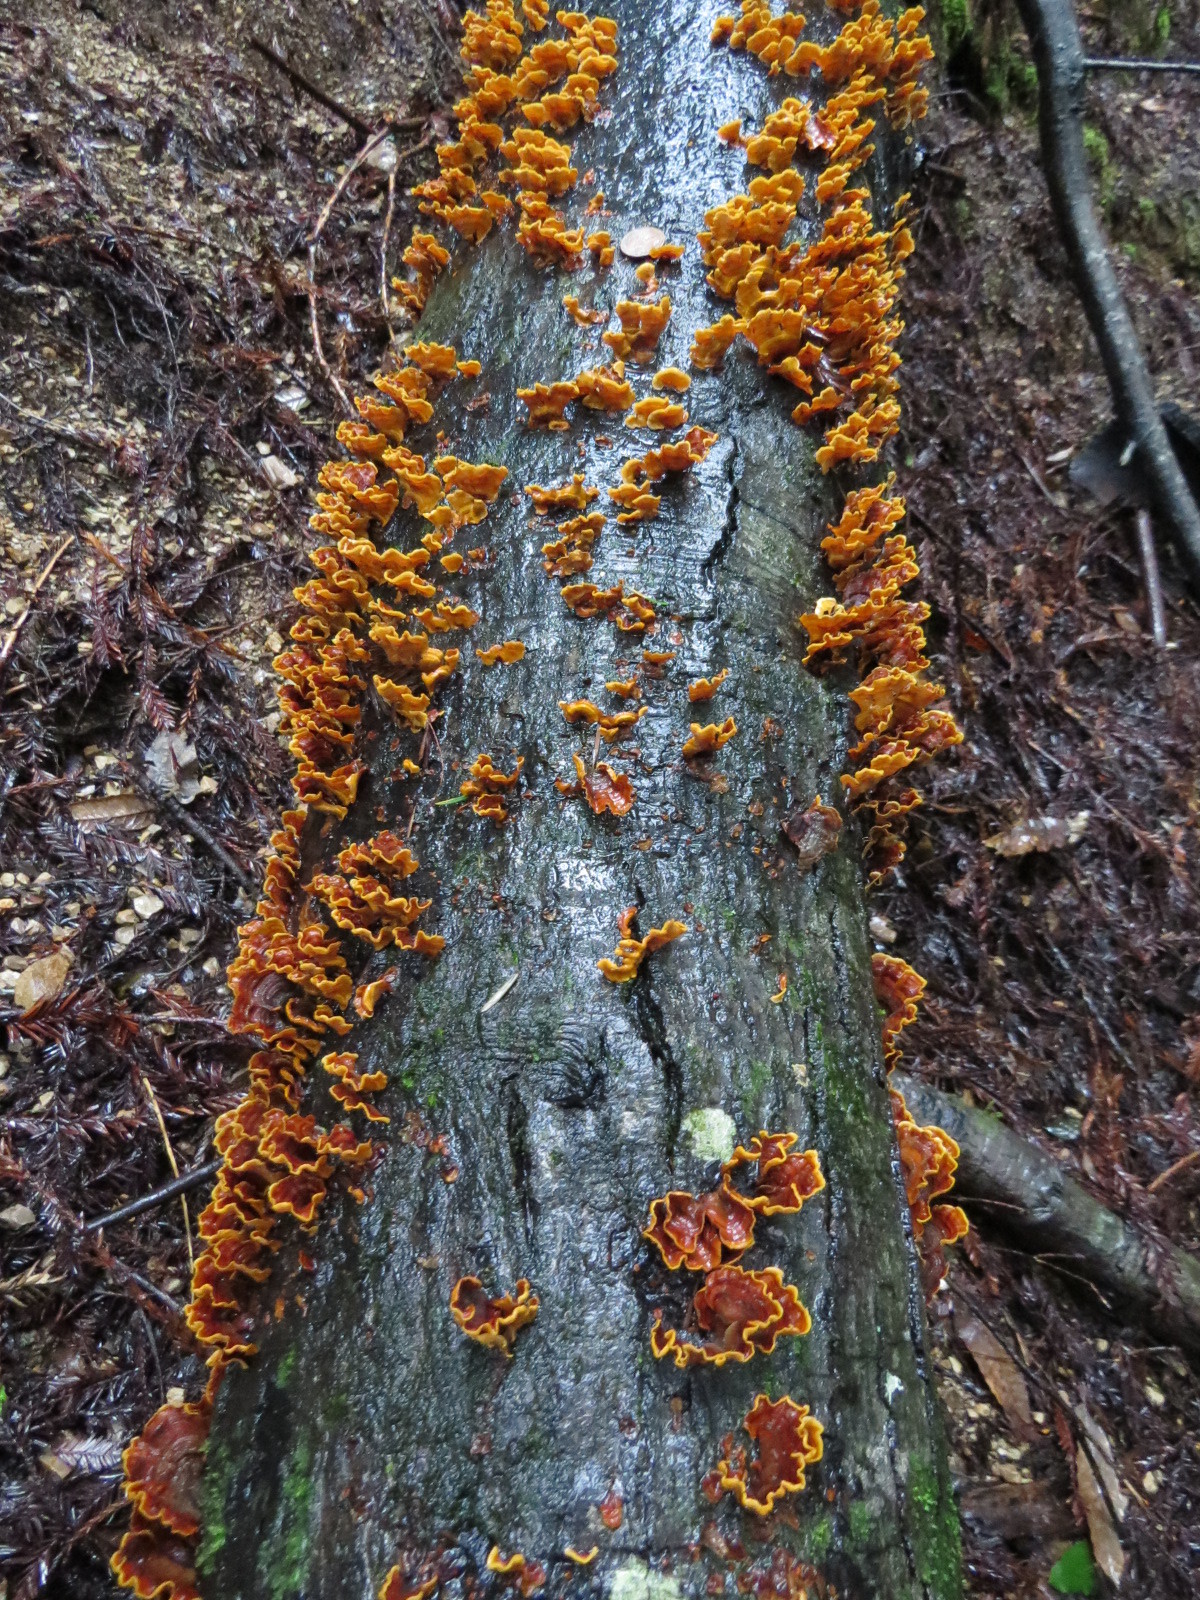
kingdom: Fungi
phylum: Basidiomycota
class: Agaricomycetes
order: Russulales
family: Stereaceae
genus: Stereum
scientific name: Stereum hirsutum
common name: Hairy curtain crust
